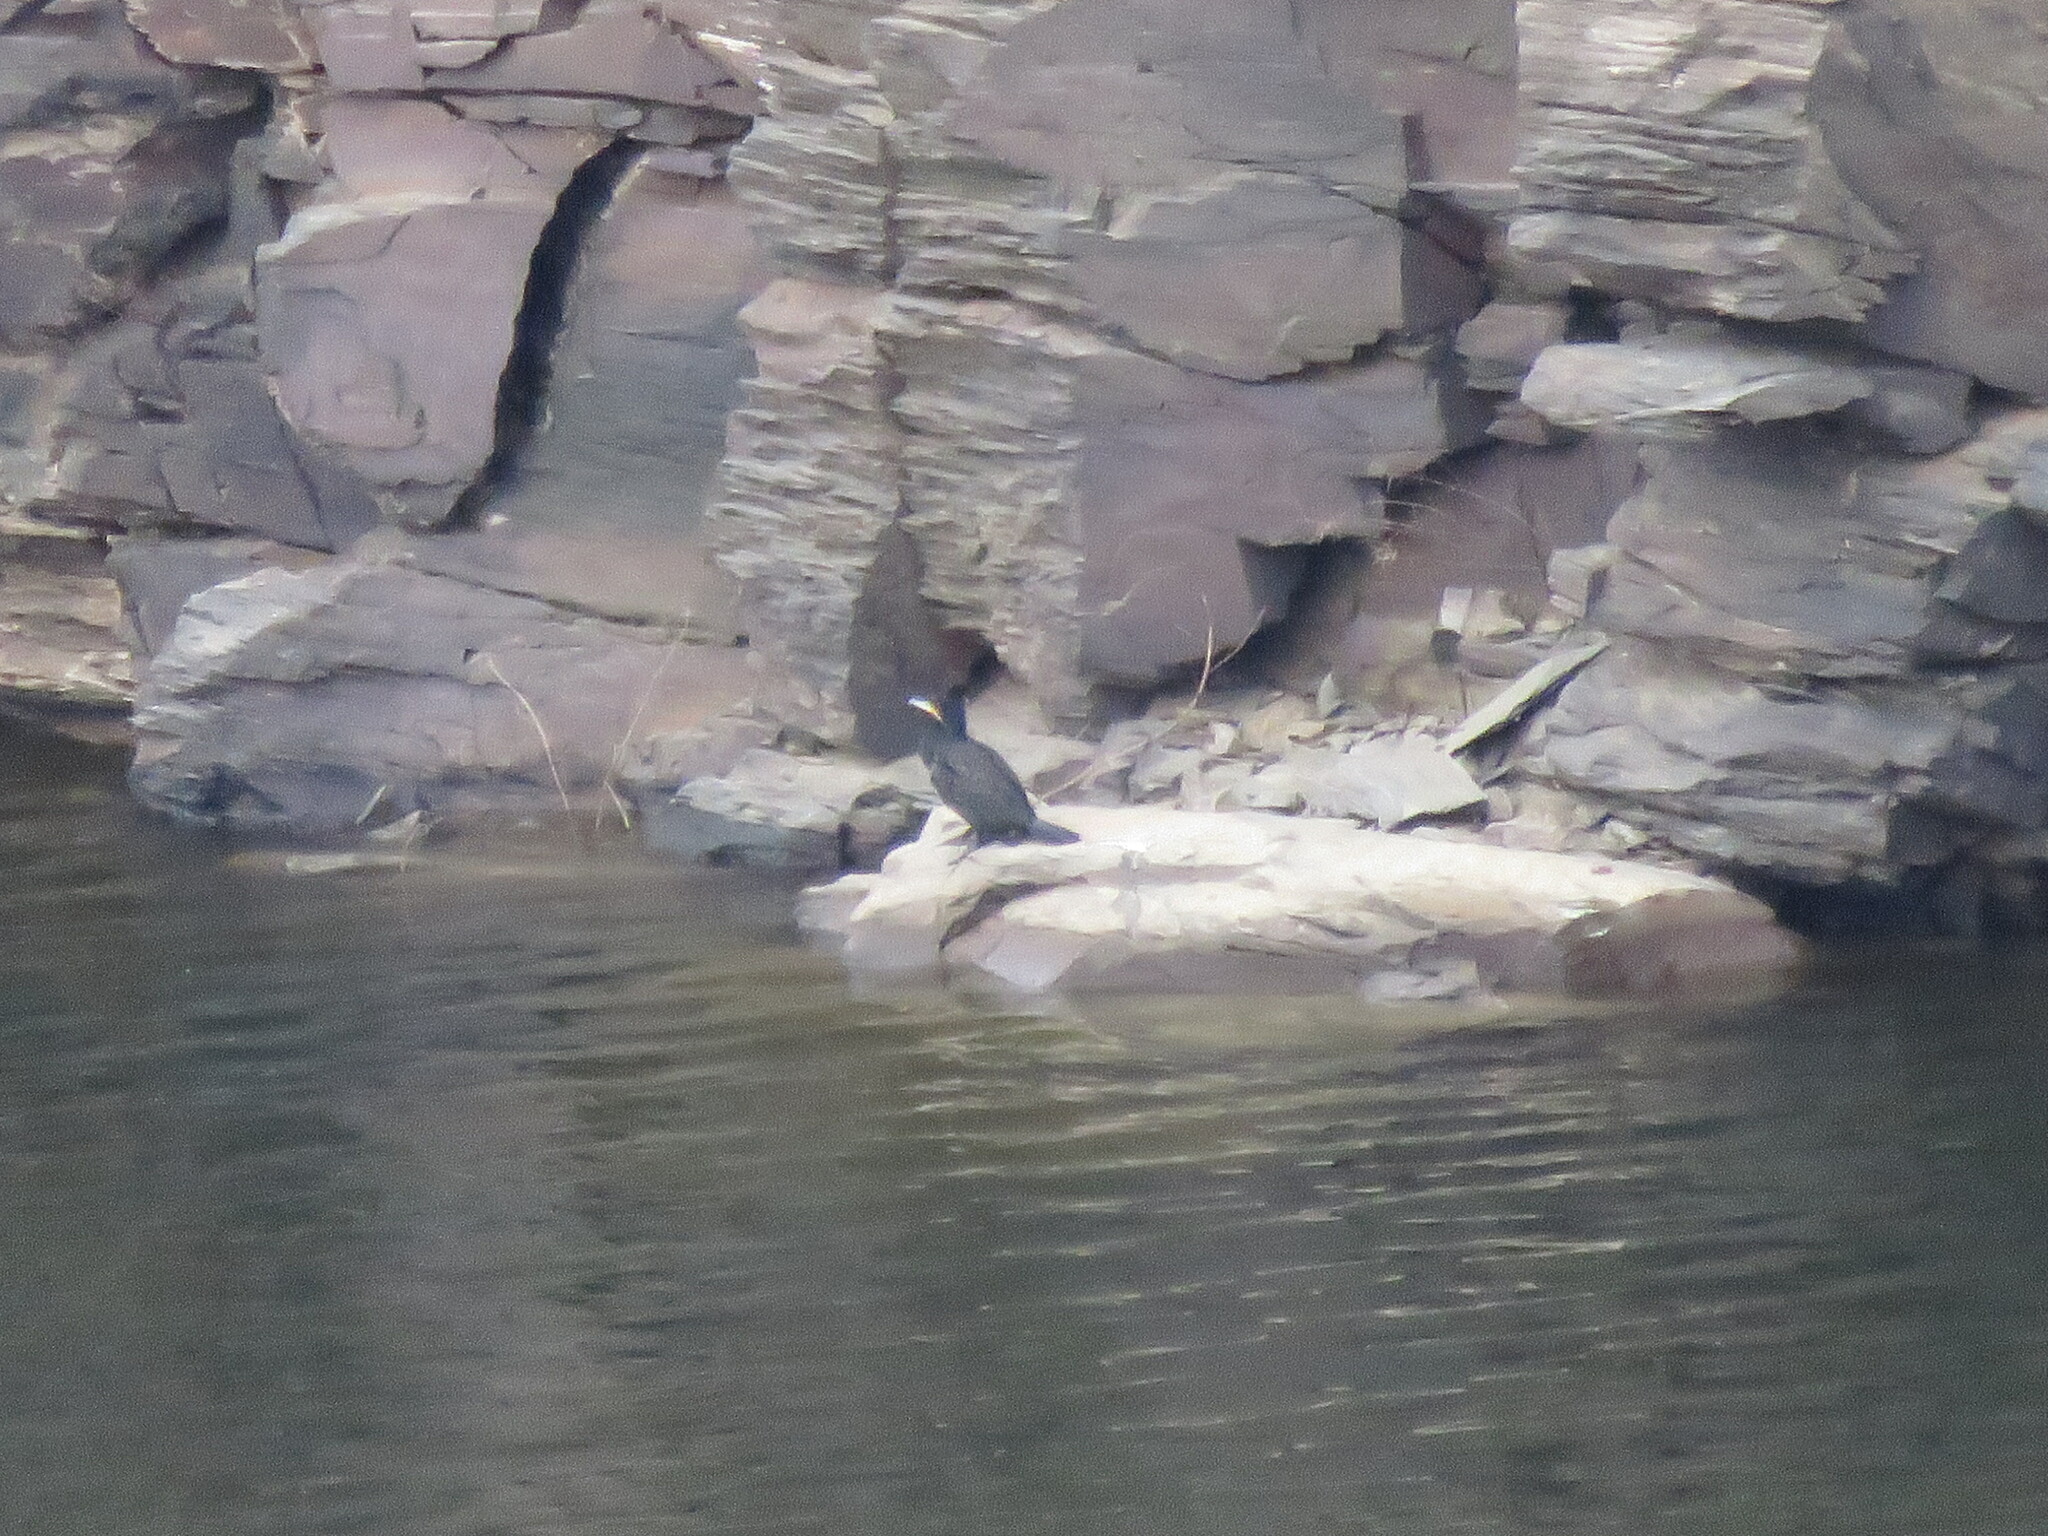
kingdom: Animalia
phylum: Chordata
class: Aves
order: Suliformes
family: Phalacrocoracidae
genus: Phalacrocorax
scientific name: Phalacrocorax carbo
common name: Great cormorant
